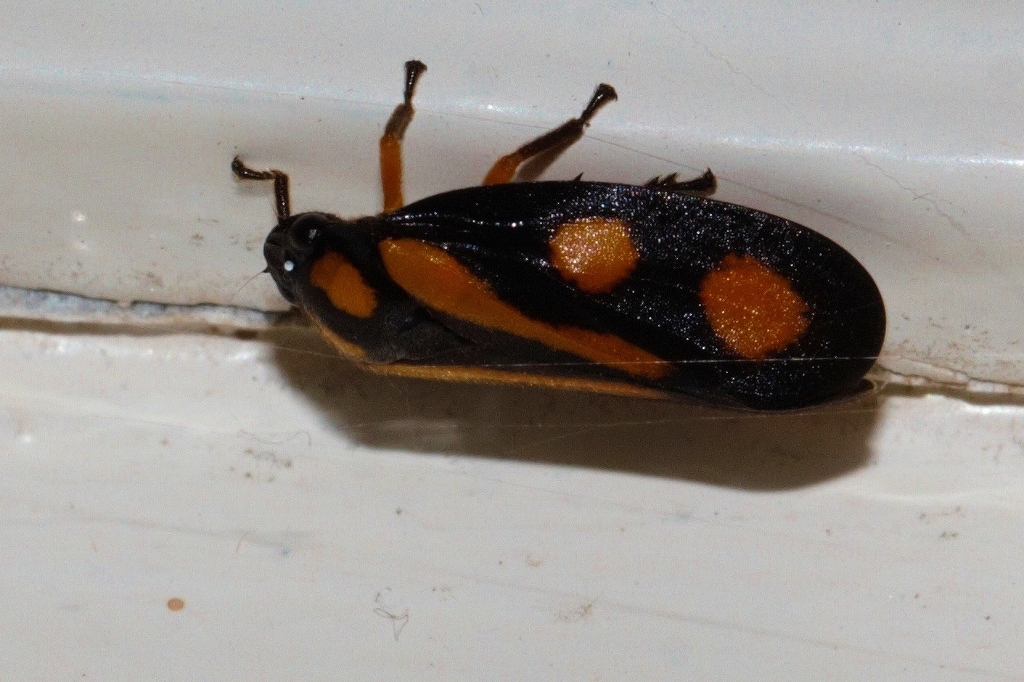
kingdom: Animalia
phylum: Arthropoda
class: Insecta
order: Hemiptera
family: Cercopidae
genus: Hemitriecphora
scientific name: Hemitriecphora variabilis
